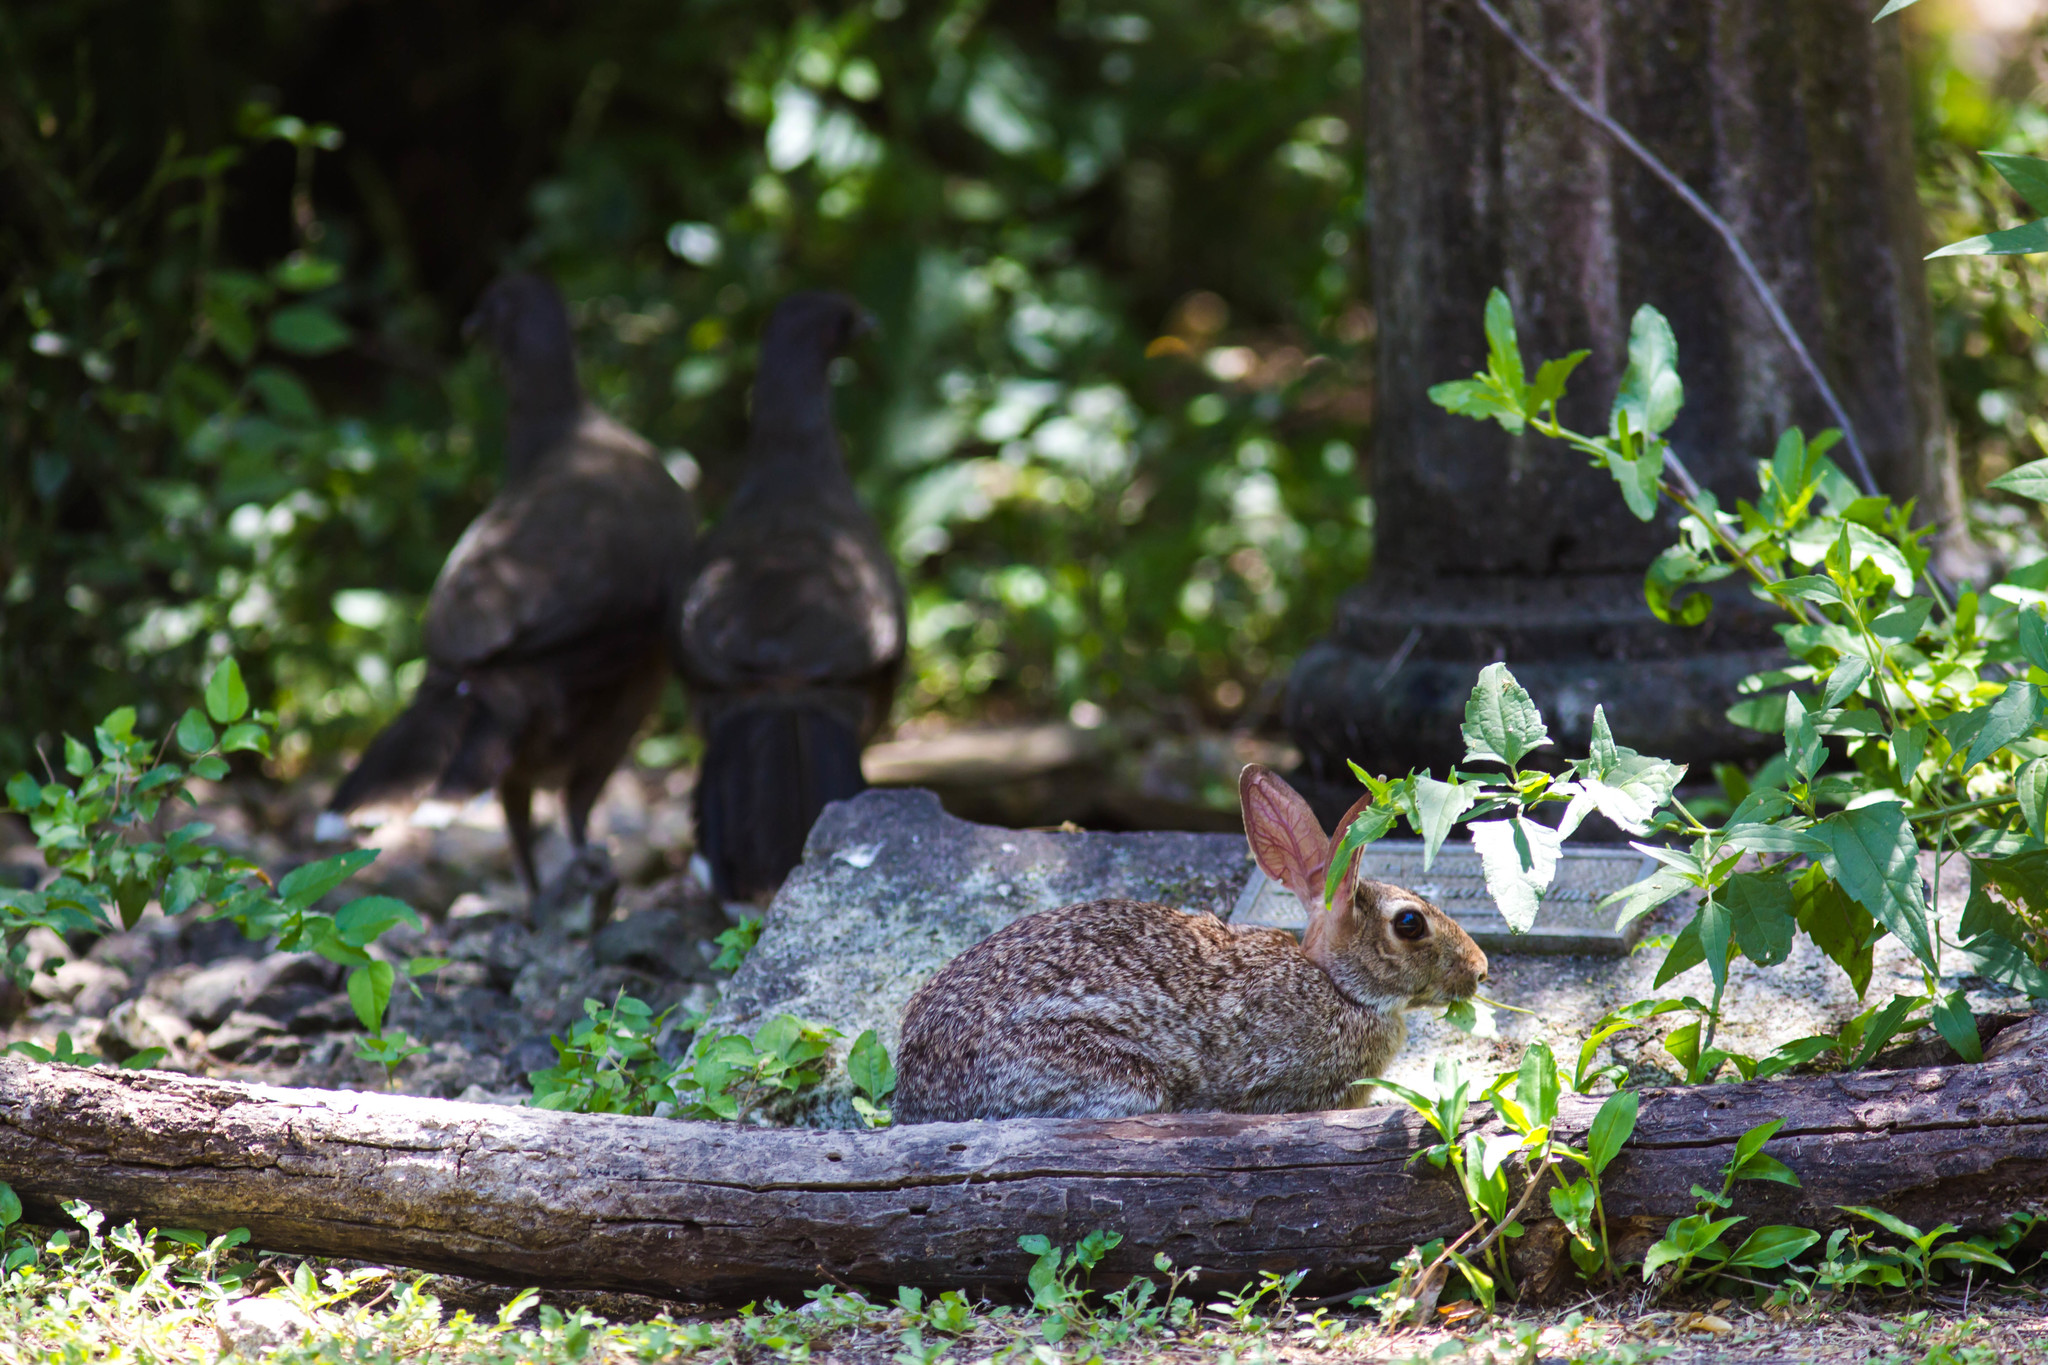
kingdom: Animalia
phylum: Chordata
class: Mammalia
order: Lagomorpha
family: Leporidae
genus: Sylvilagus
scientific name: Sylvilagus floridanus
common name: Eastern cottontail
